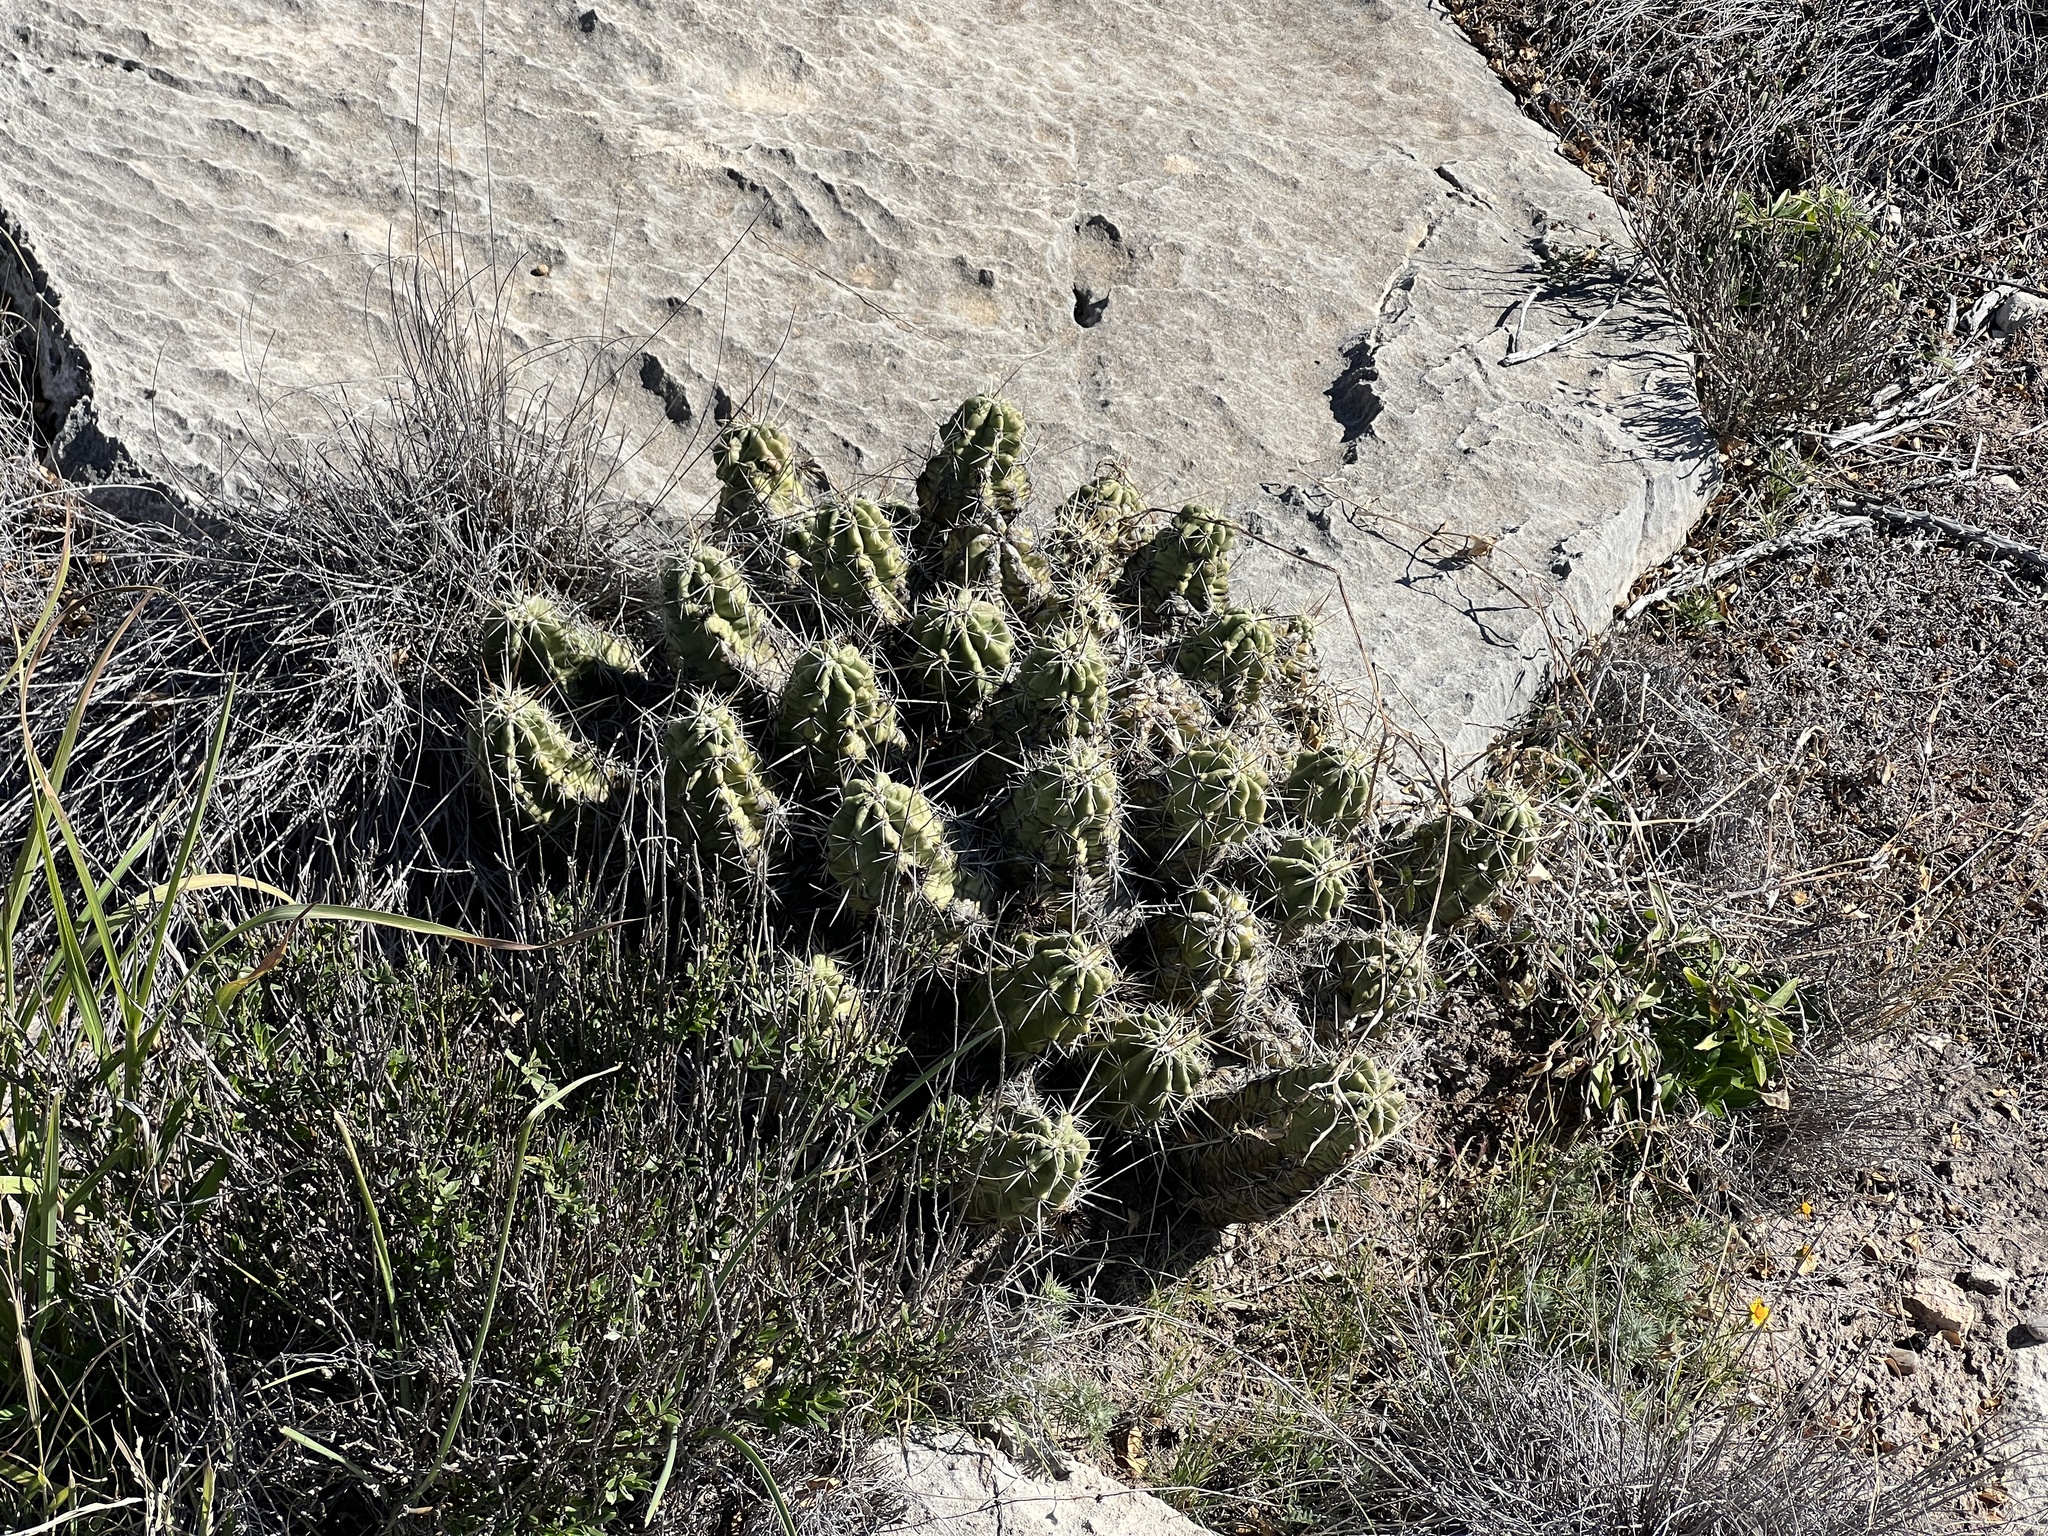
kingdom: Plantae
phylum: Tracheophyta
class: Magnoliopsida
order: Caryophyllales
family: Cactaceae
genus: Echinocereus
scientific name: Echinocereus enneacanthus
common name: Pitaya
